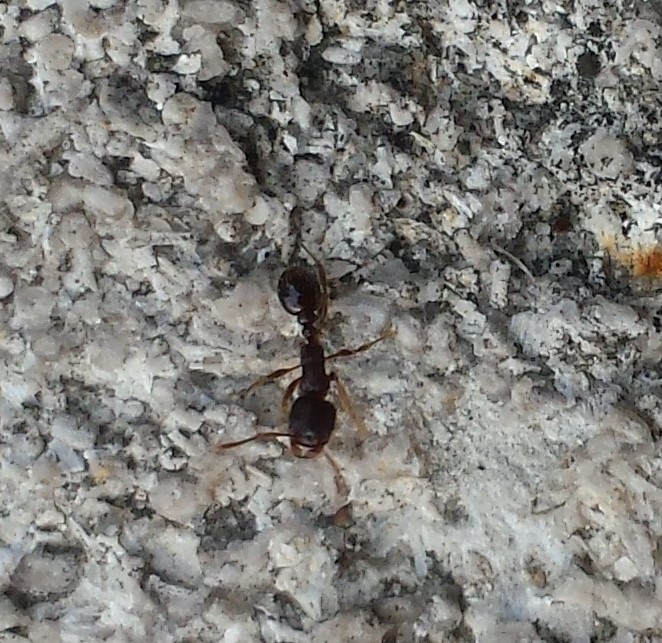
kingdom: Animalia
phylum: Arthropoda
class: Insecta
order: Hymenoptera
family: Formicidae
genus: Tetramorium
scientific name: Tetramorium immigrans
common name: Pavement ant
